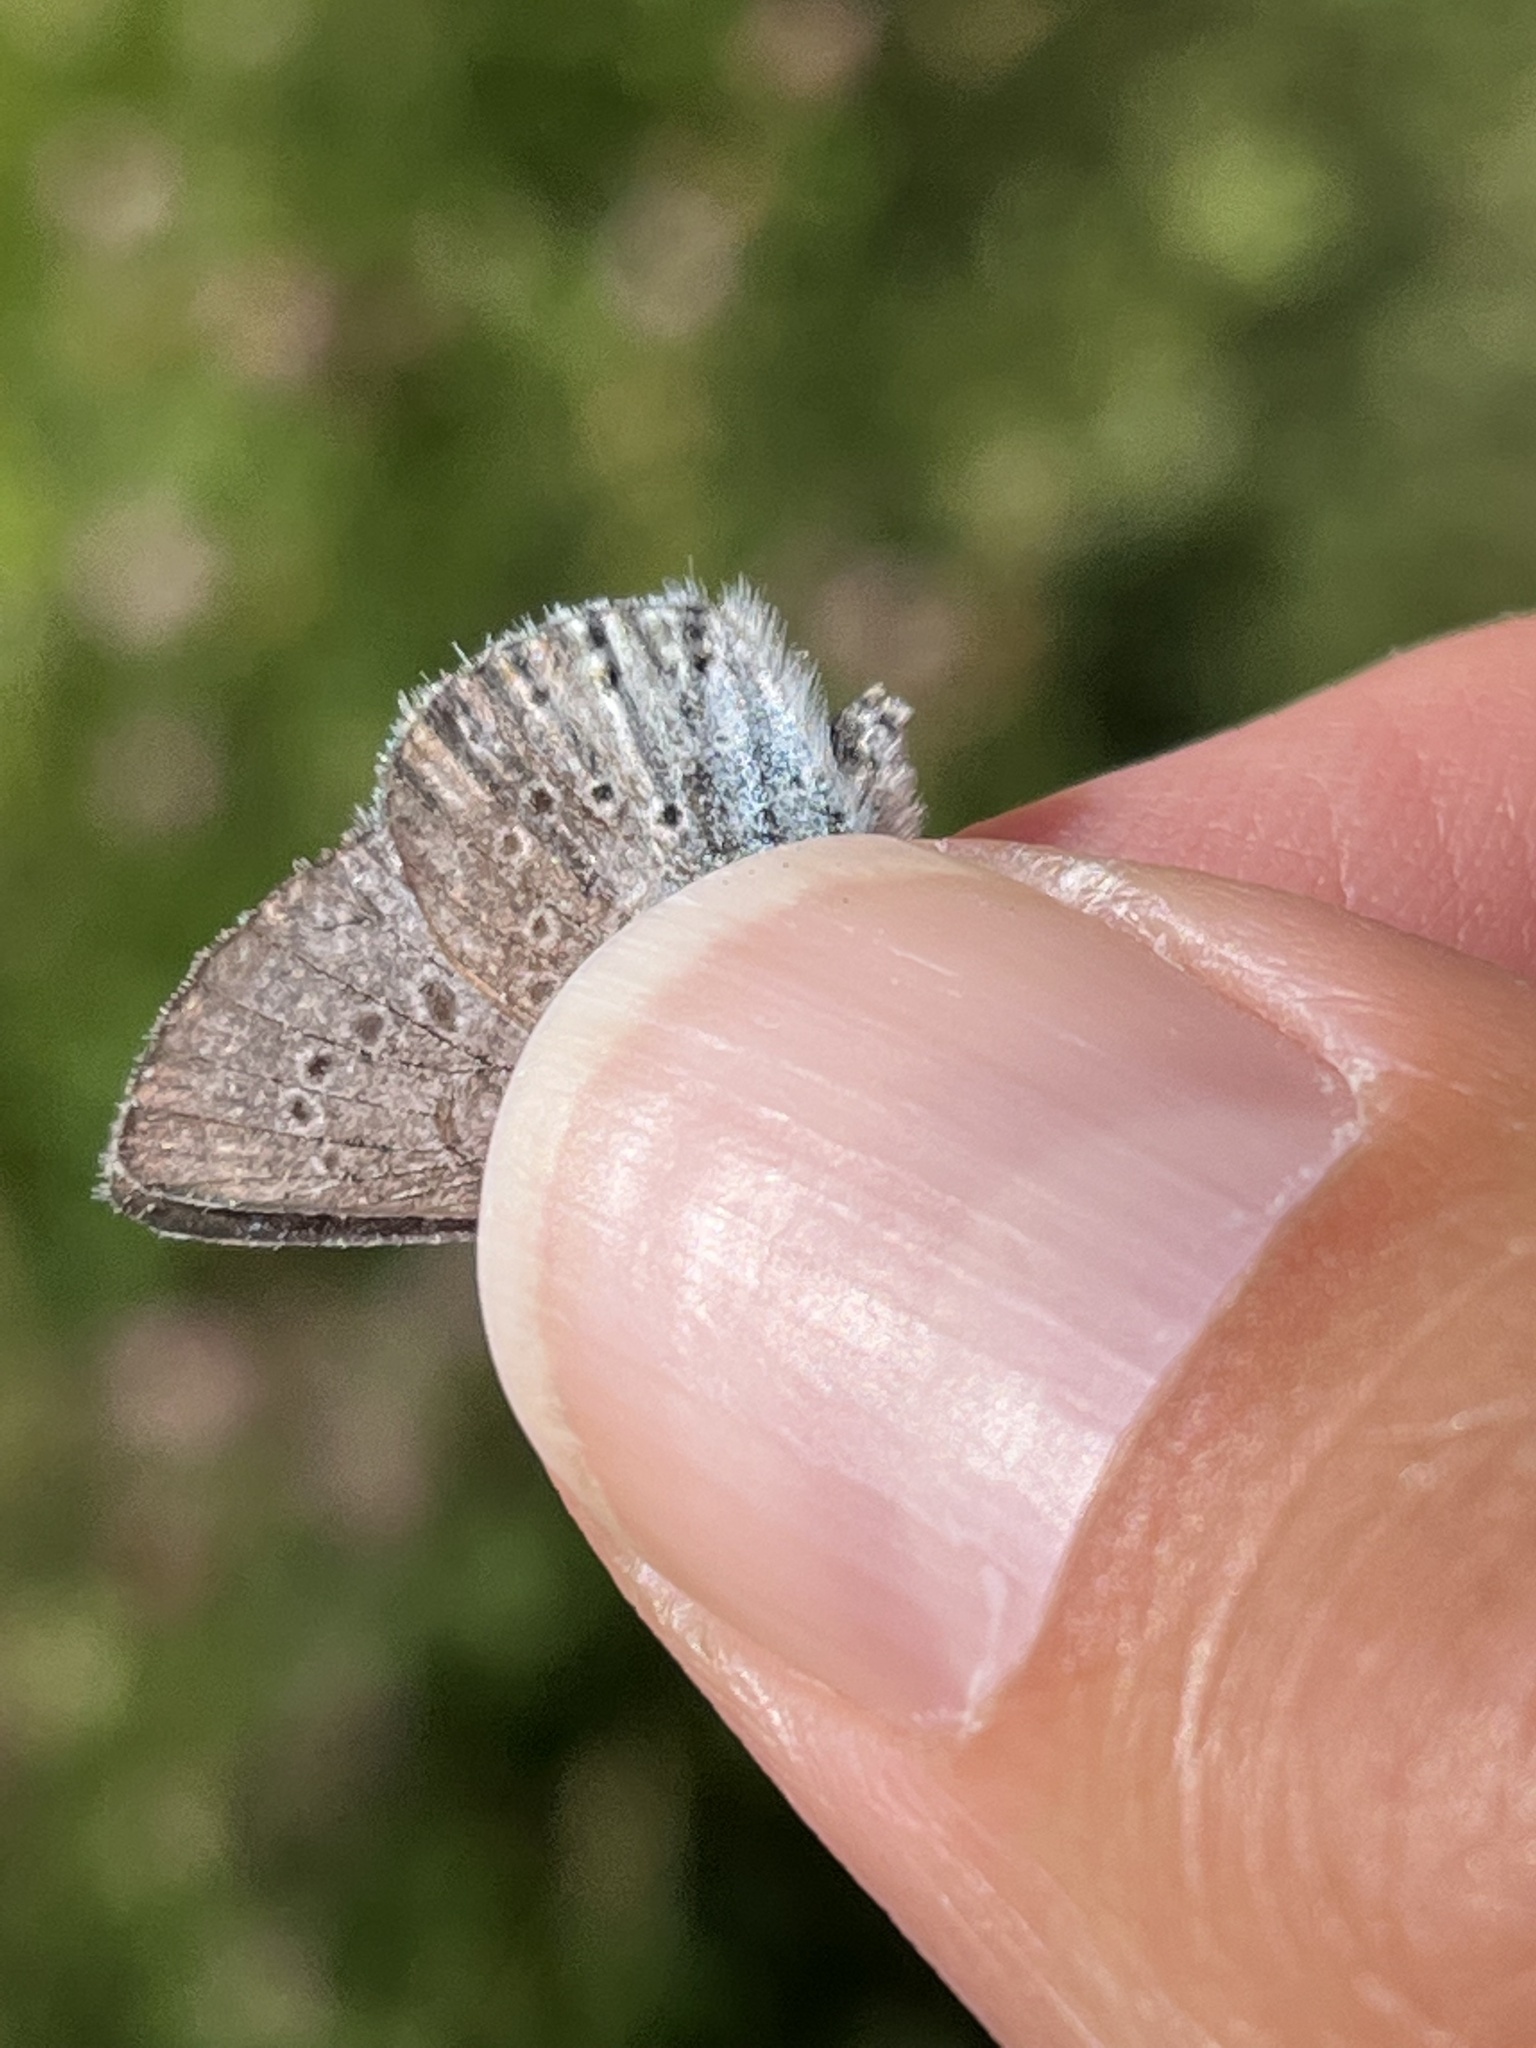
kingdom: Animalia
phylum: Arthropoda
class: Insecta
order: Lepidoptera
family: Lycaenidae
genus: Icaricia
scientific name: Icaricia saepiolus
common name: Greenish blue
